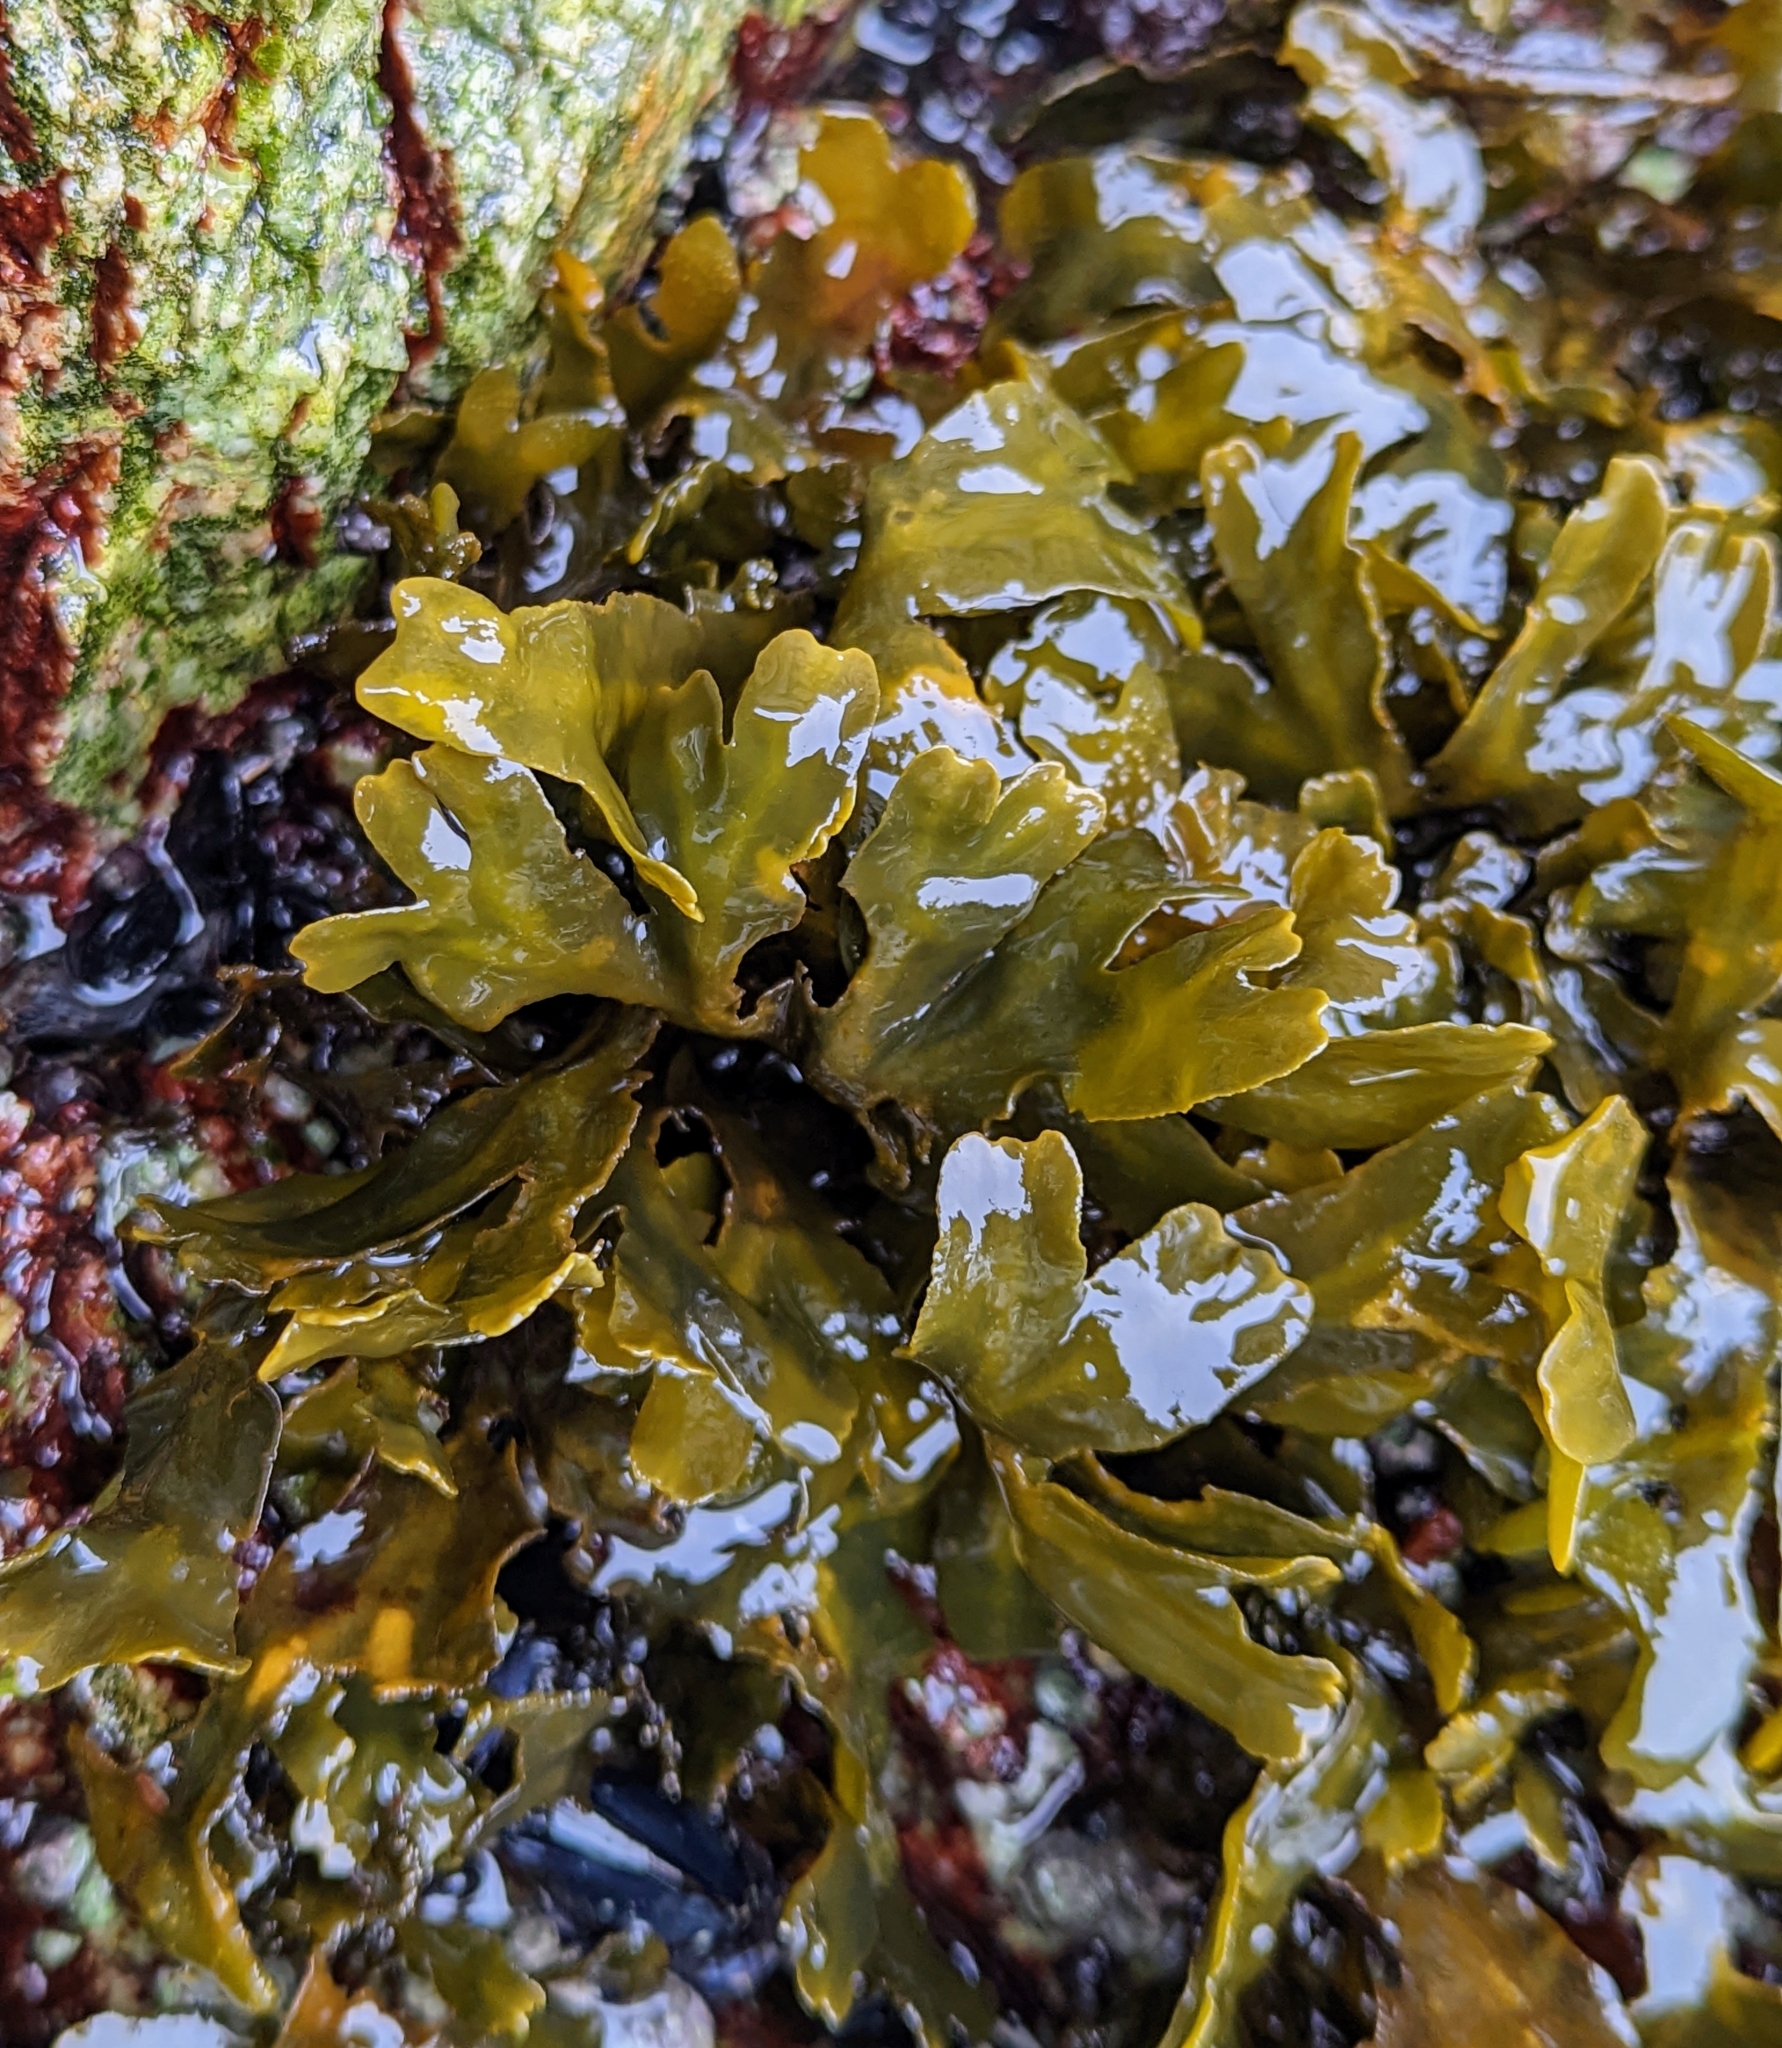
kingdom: Chromista
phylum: Ochrophyta
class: Phaeophyceae
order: Fucales
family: Fucaceae
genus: Fucus
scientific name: Fucus distichus
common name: Rockweed
